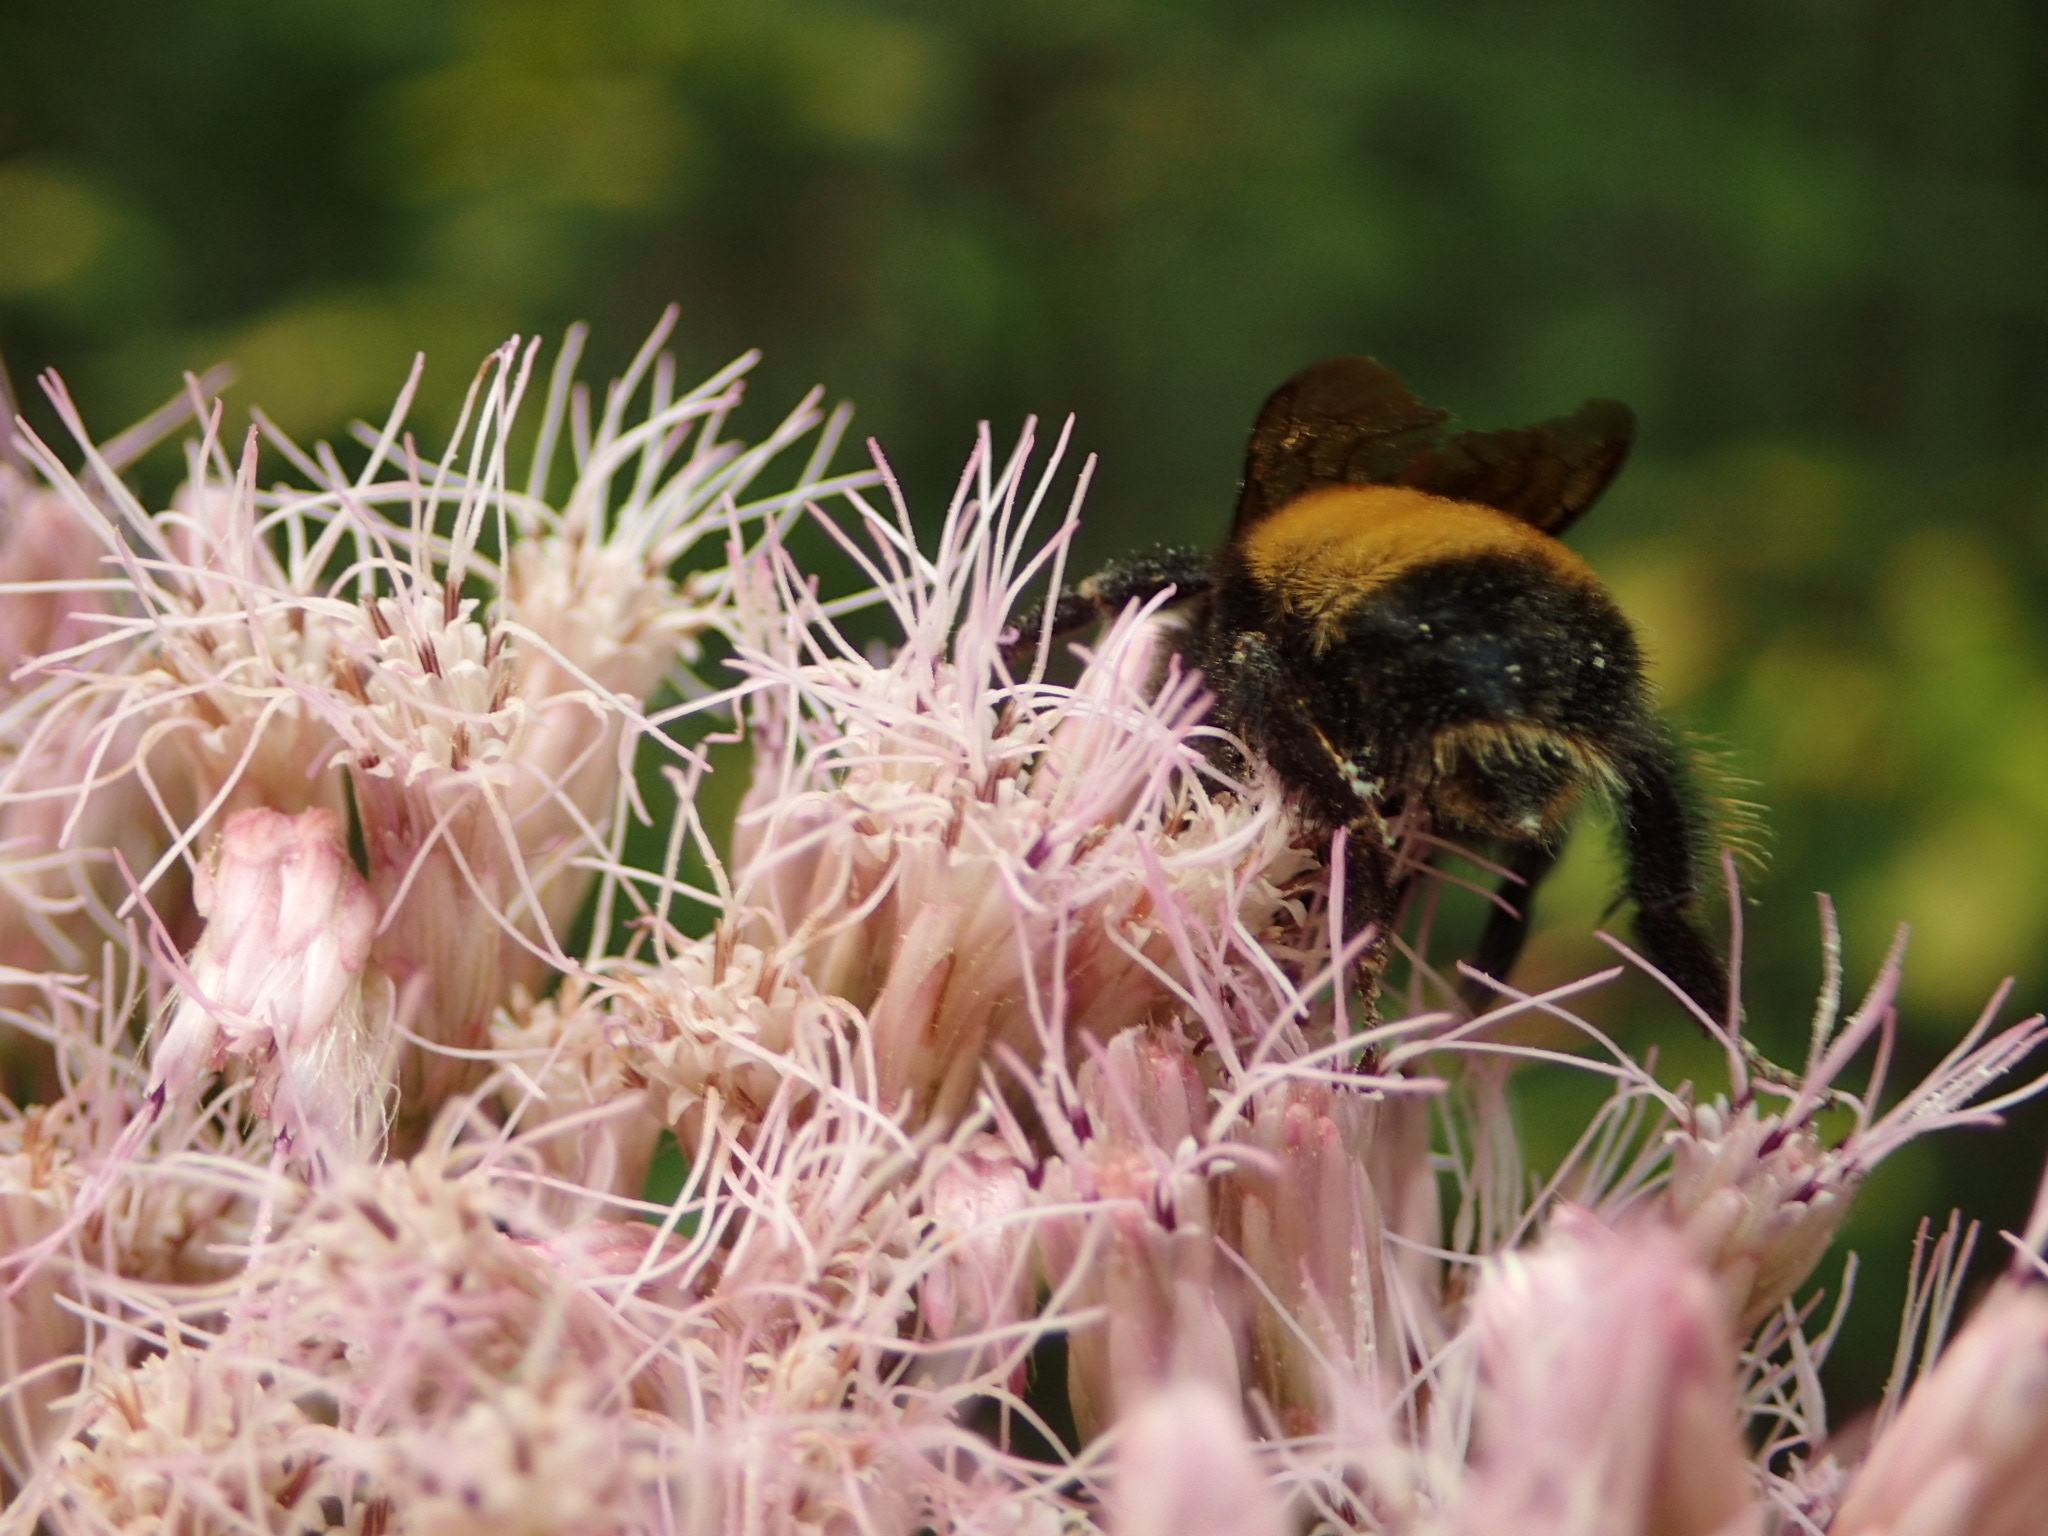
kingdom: Animalia
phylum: Arthropoda
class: Insecta
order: Hymenoptera
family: Apidae
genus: Bombus
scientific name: Bombus terricola
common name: Yellow-banded bumble bee
